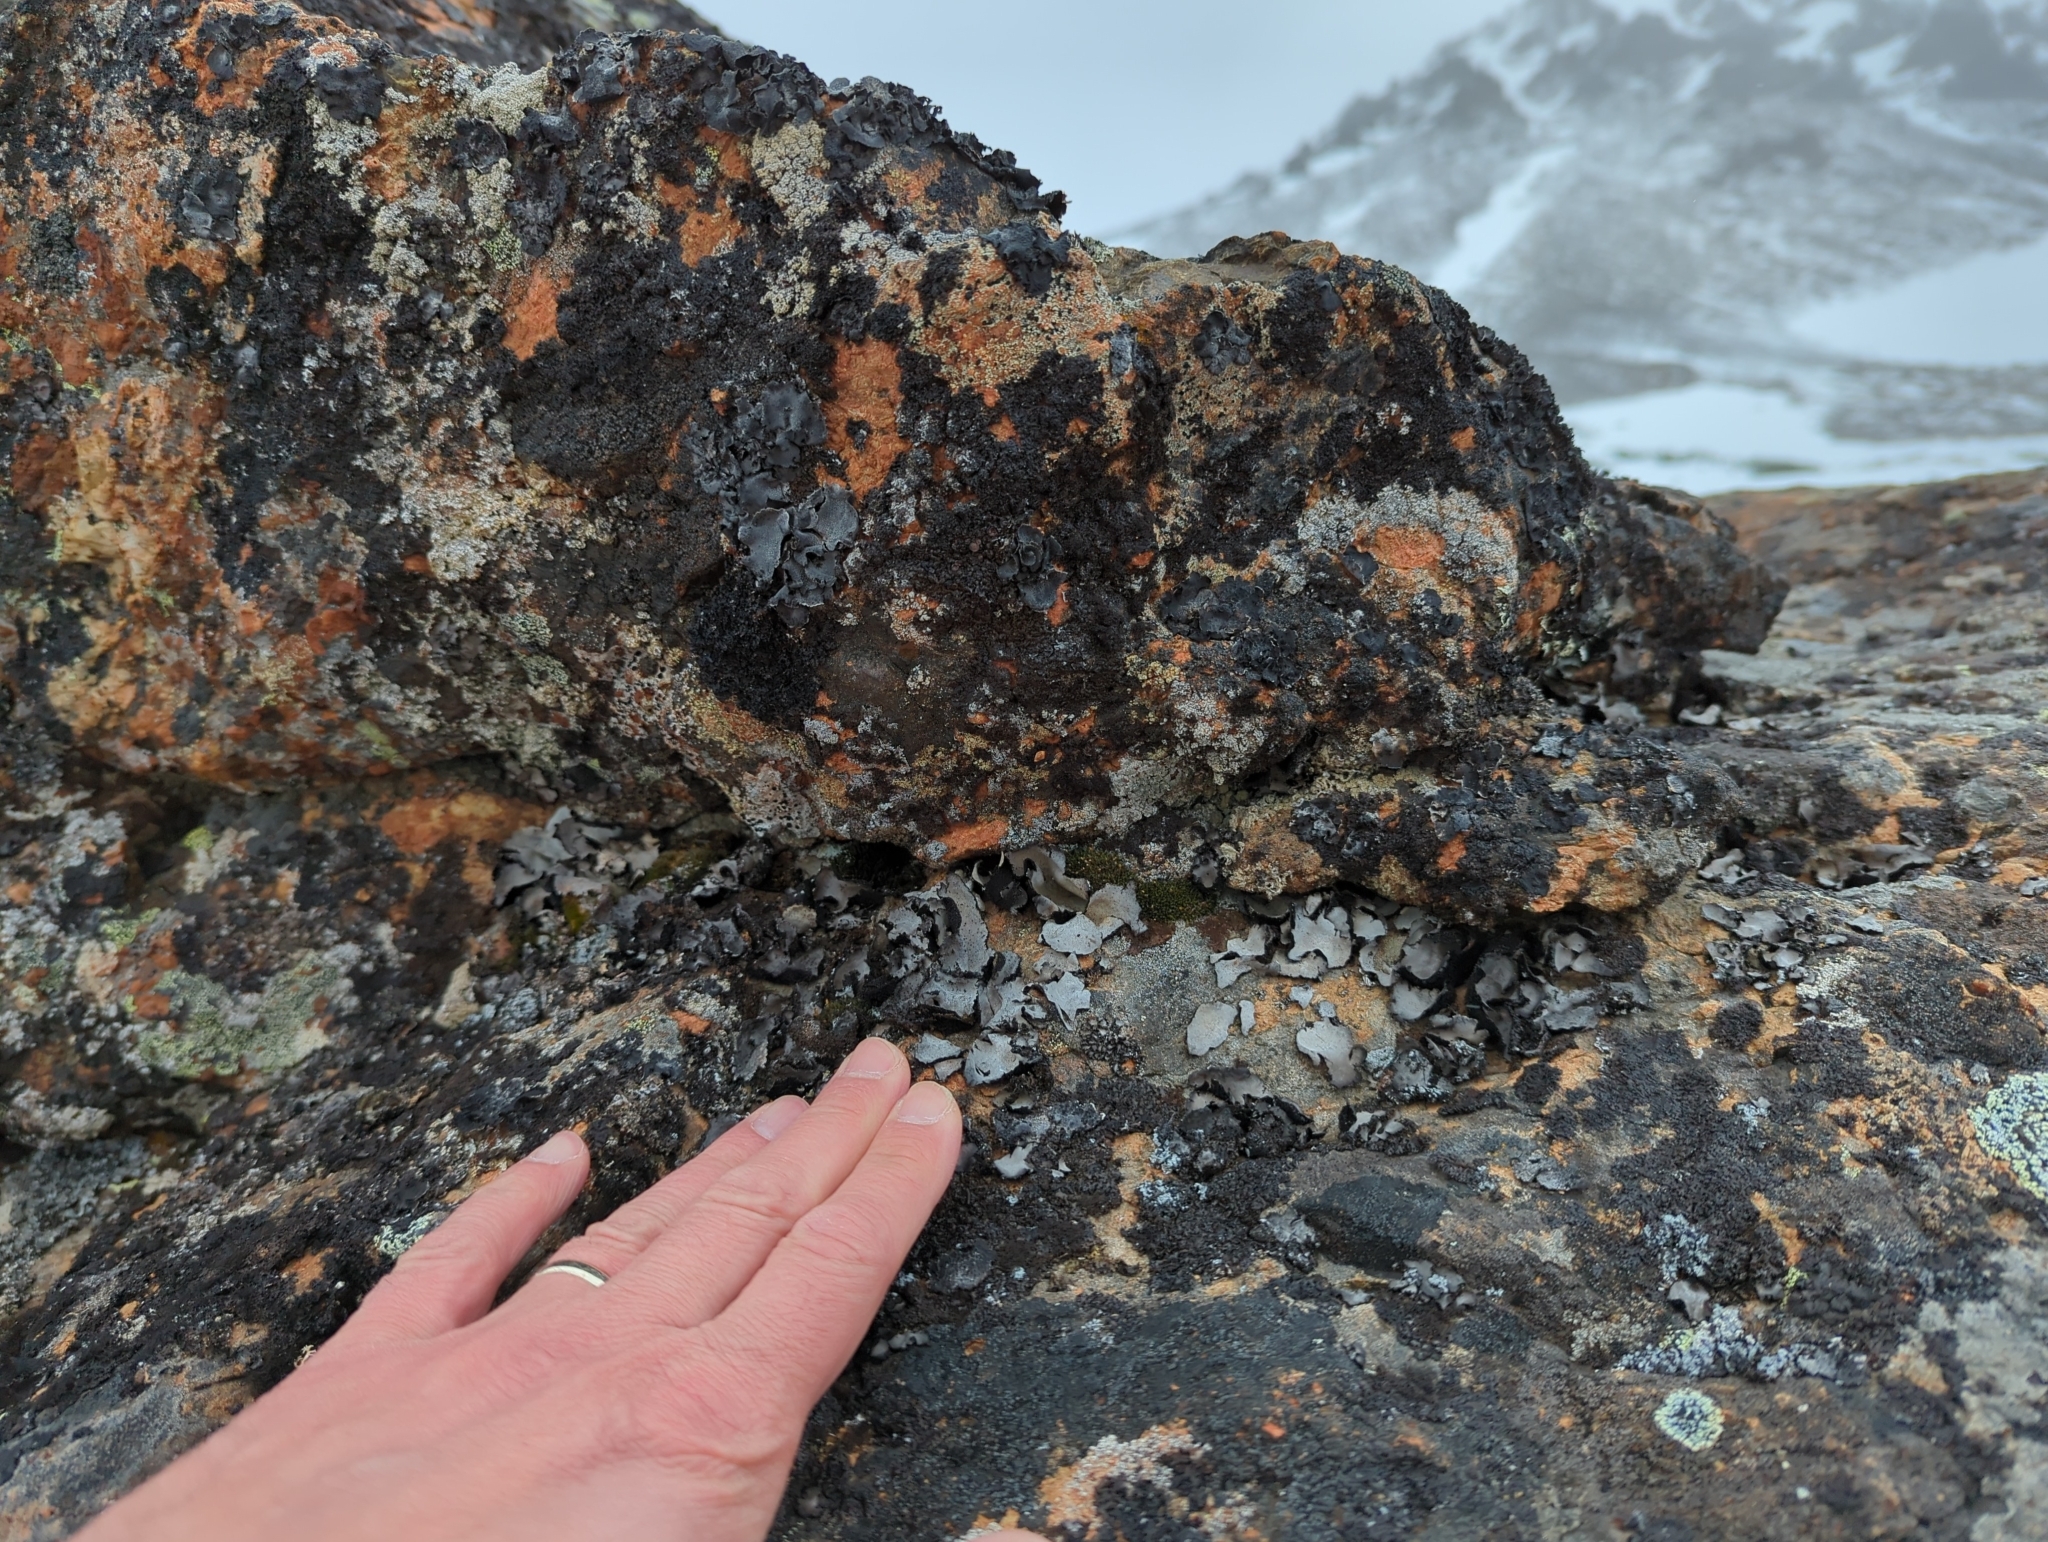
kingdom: Fungi
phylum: Ascomycota
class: Lecanoromycetes
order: Umbilicariales
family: Umbilicariaceae
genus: Umbilicaria
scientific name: Umbilicaria americana
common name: Frosted rock tripe
